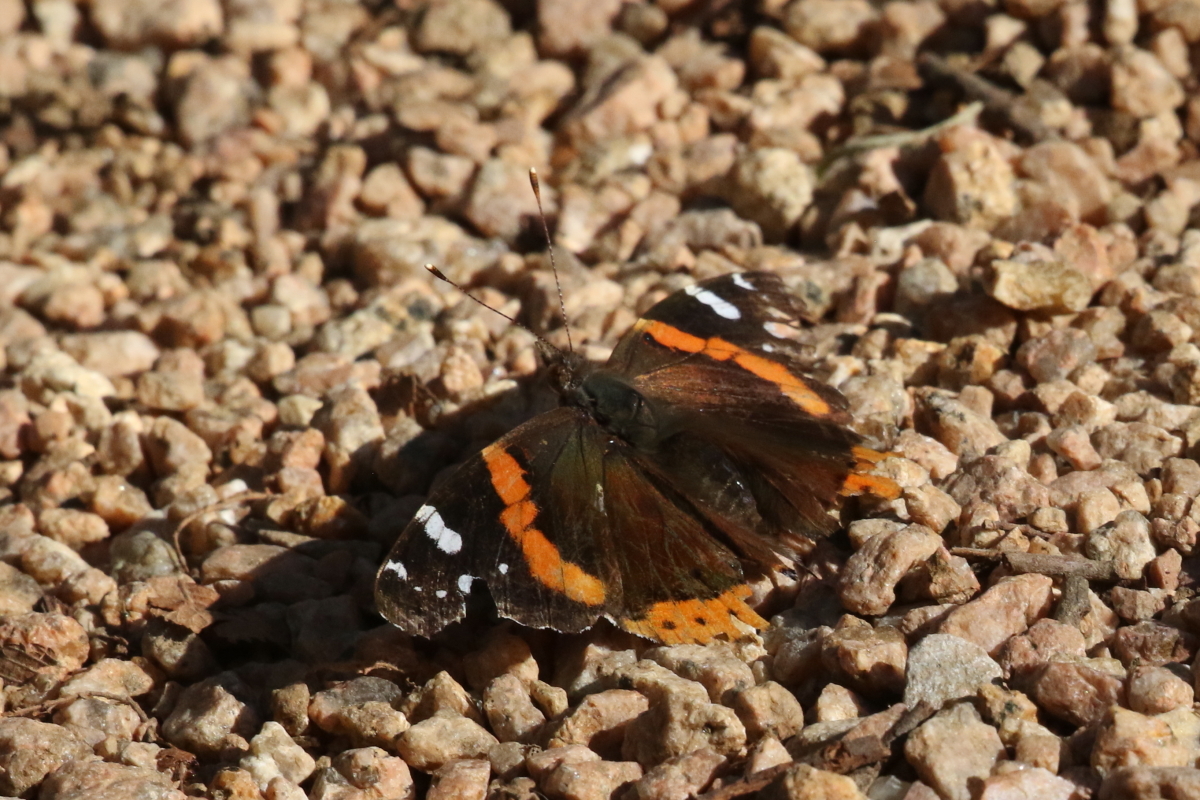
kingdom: Animalia
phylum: Arthropoda
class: Insecta
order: Lepidoptera
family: Nymphalidae
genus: Vanessa
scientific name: Vanessa atalanta
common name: Red admiral
